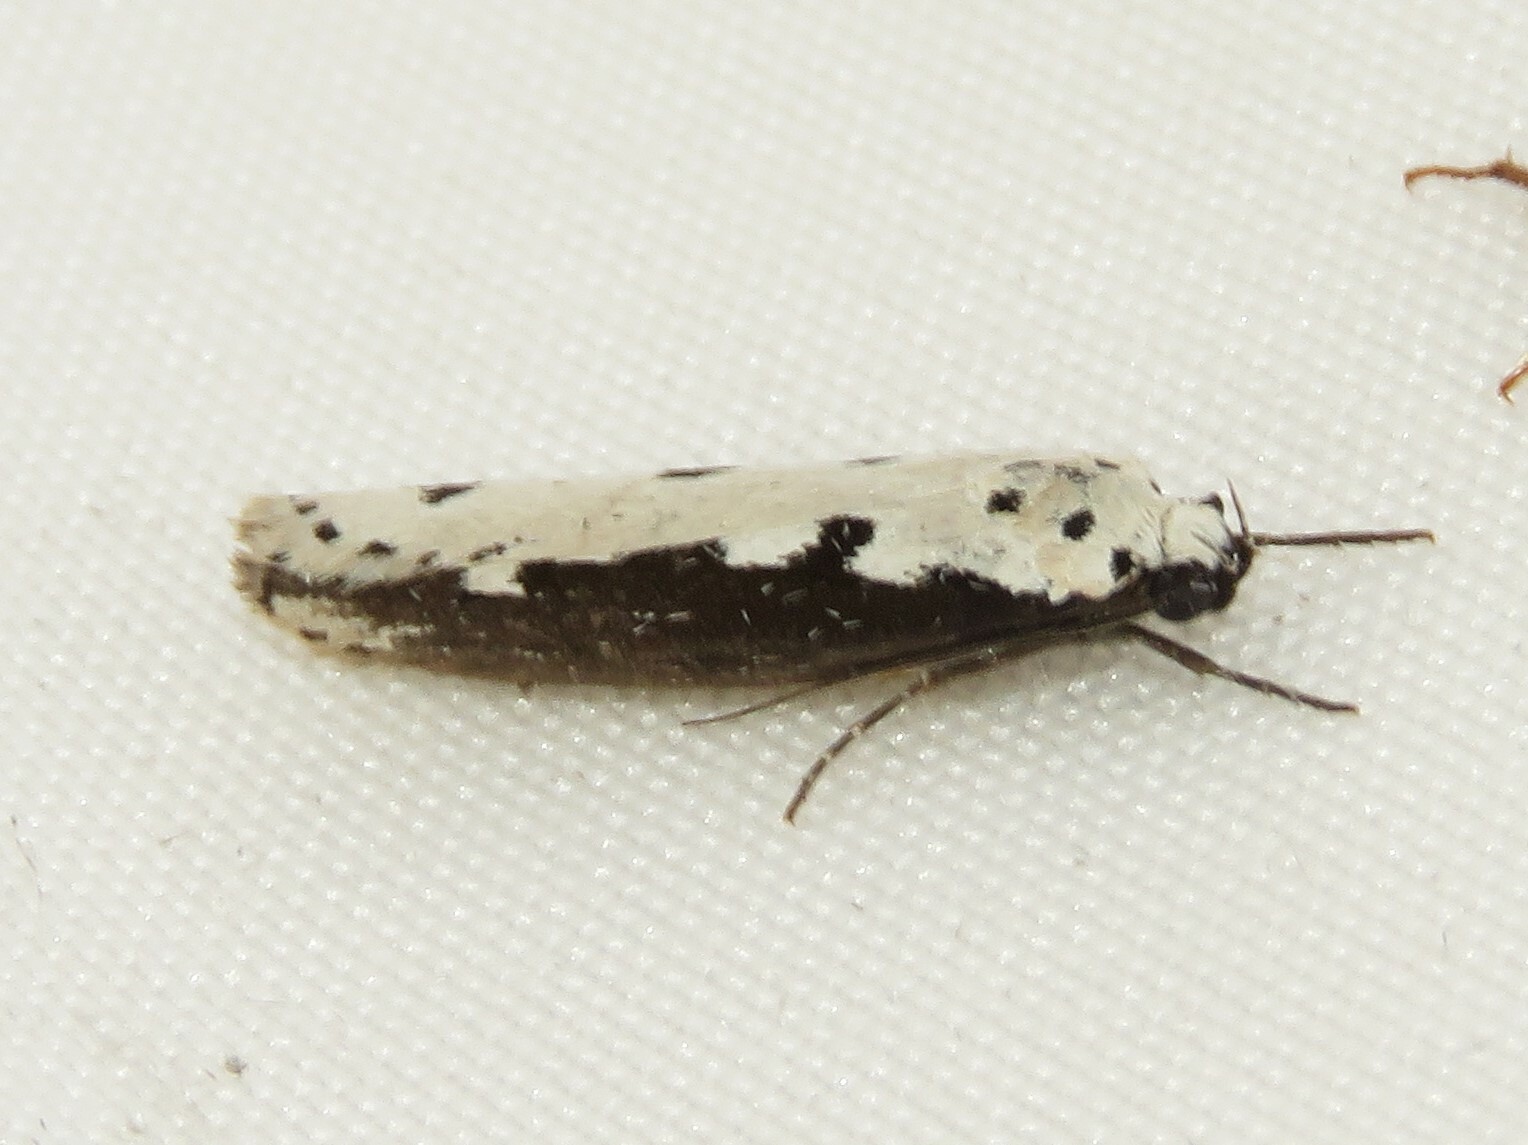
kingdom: Animalia
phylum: Arthropoda
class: Insecta
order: Lepidoptera
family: Ethmiidae
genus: Ethmia
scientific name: Ethmia bipunctella
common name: Bordered ermel
